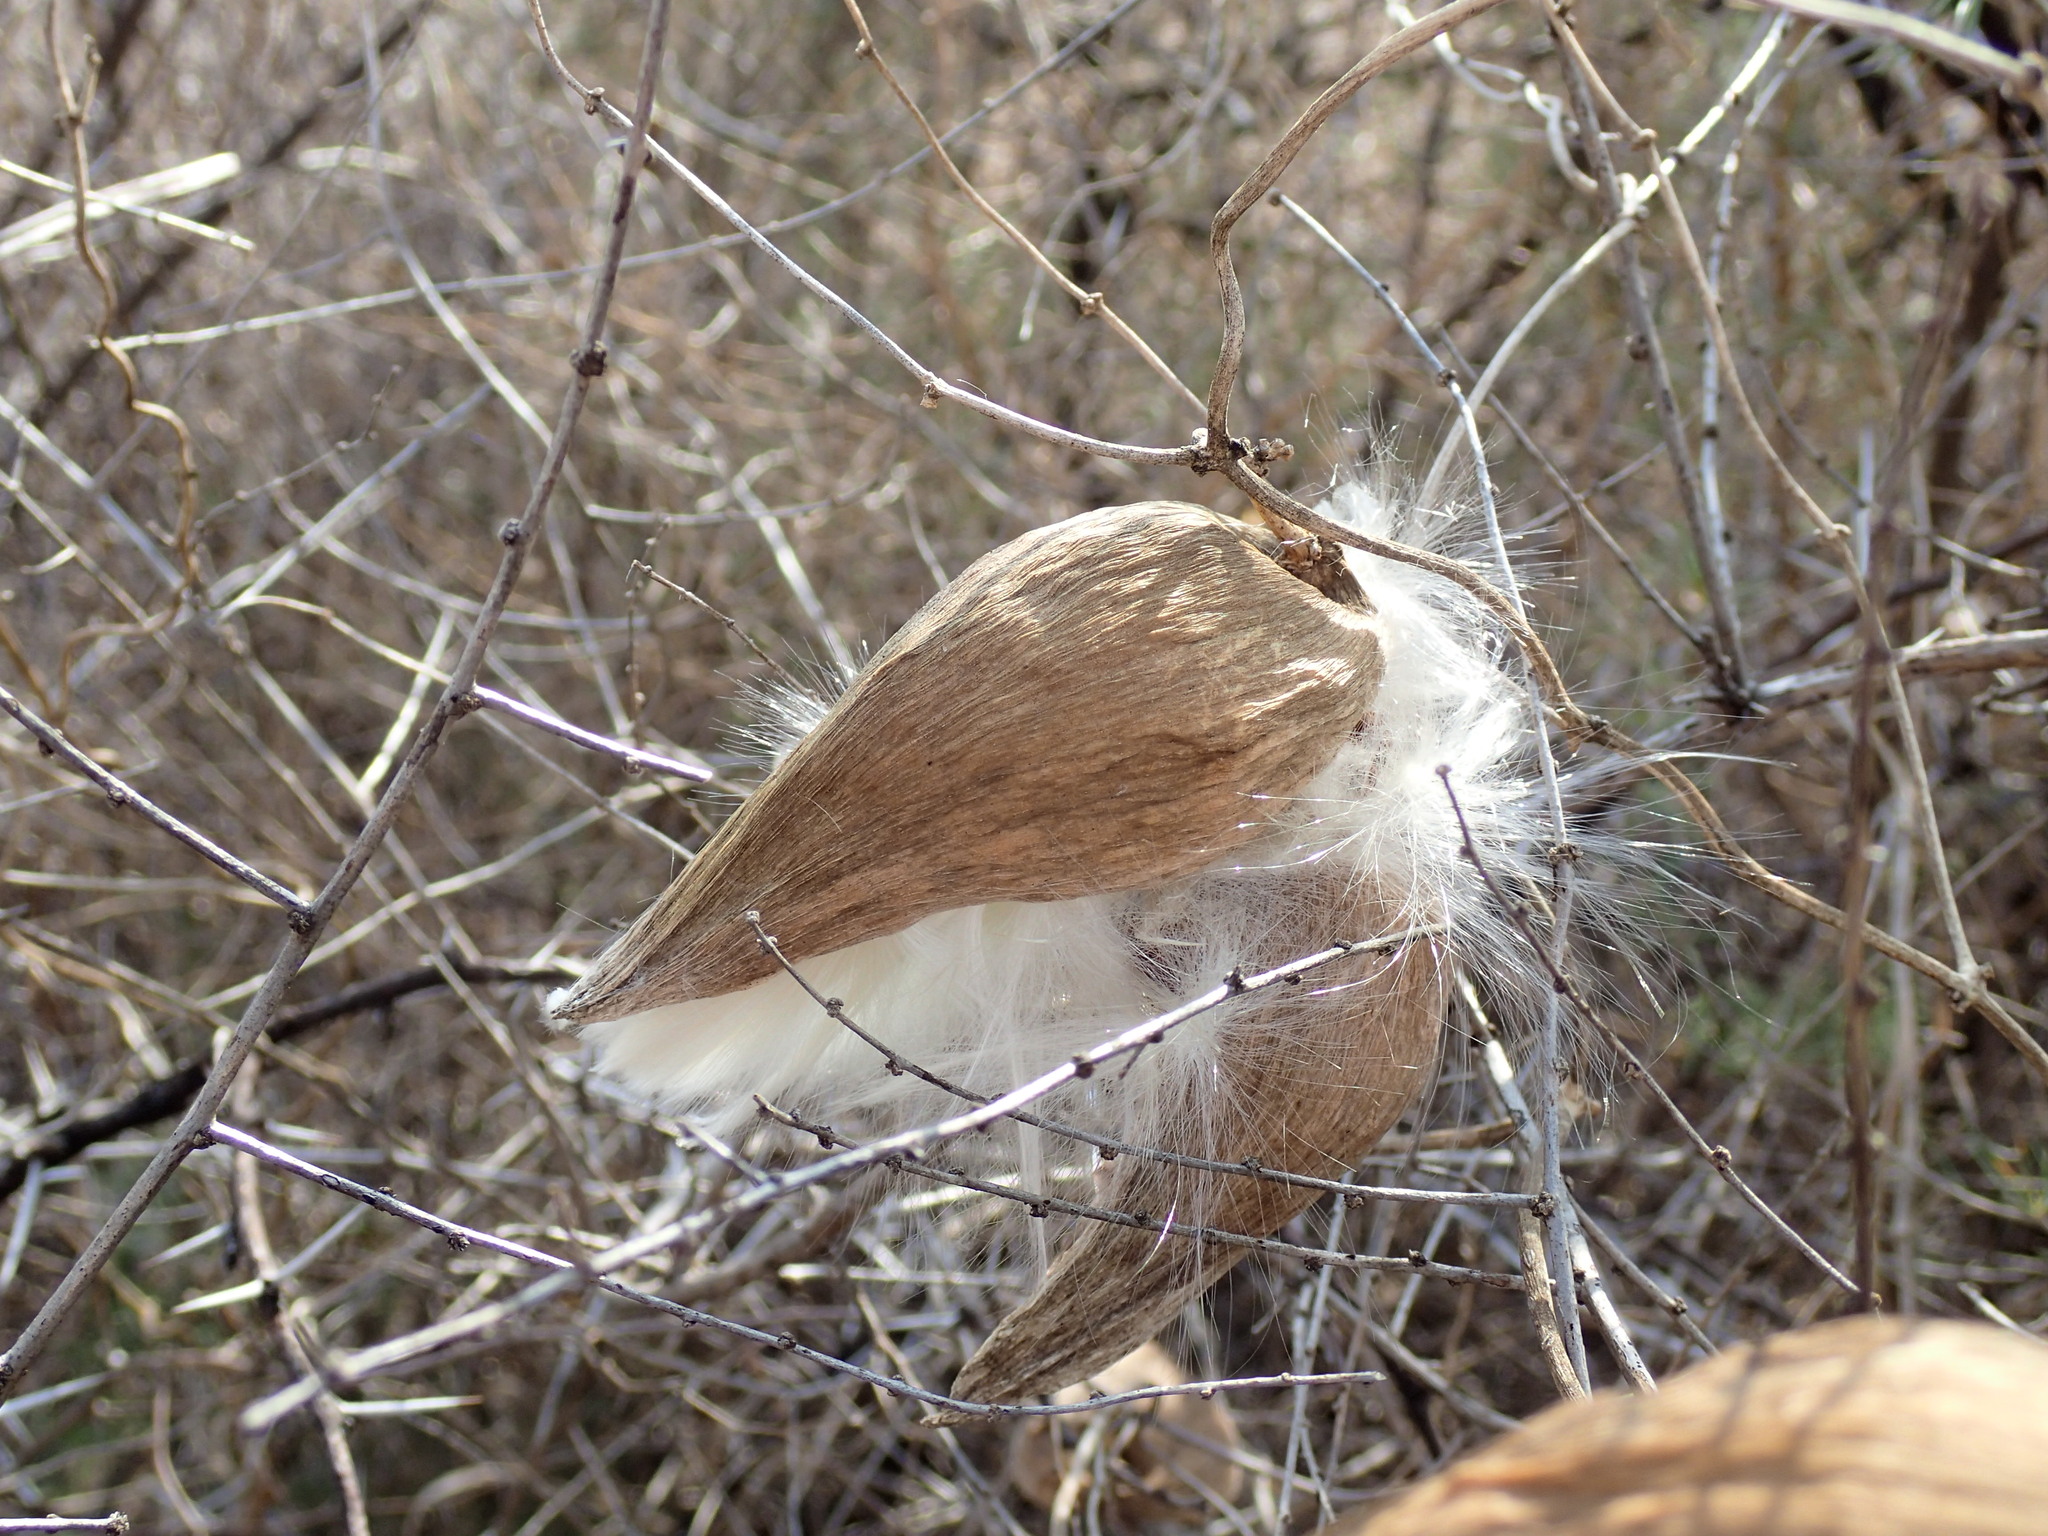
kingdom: Plantae
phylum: Tracheophyta
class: Magnoliopsida
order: Gentianales
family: Apocynaceae
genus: Cynanchum
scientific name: Cynanchum
